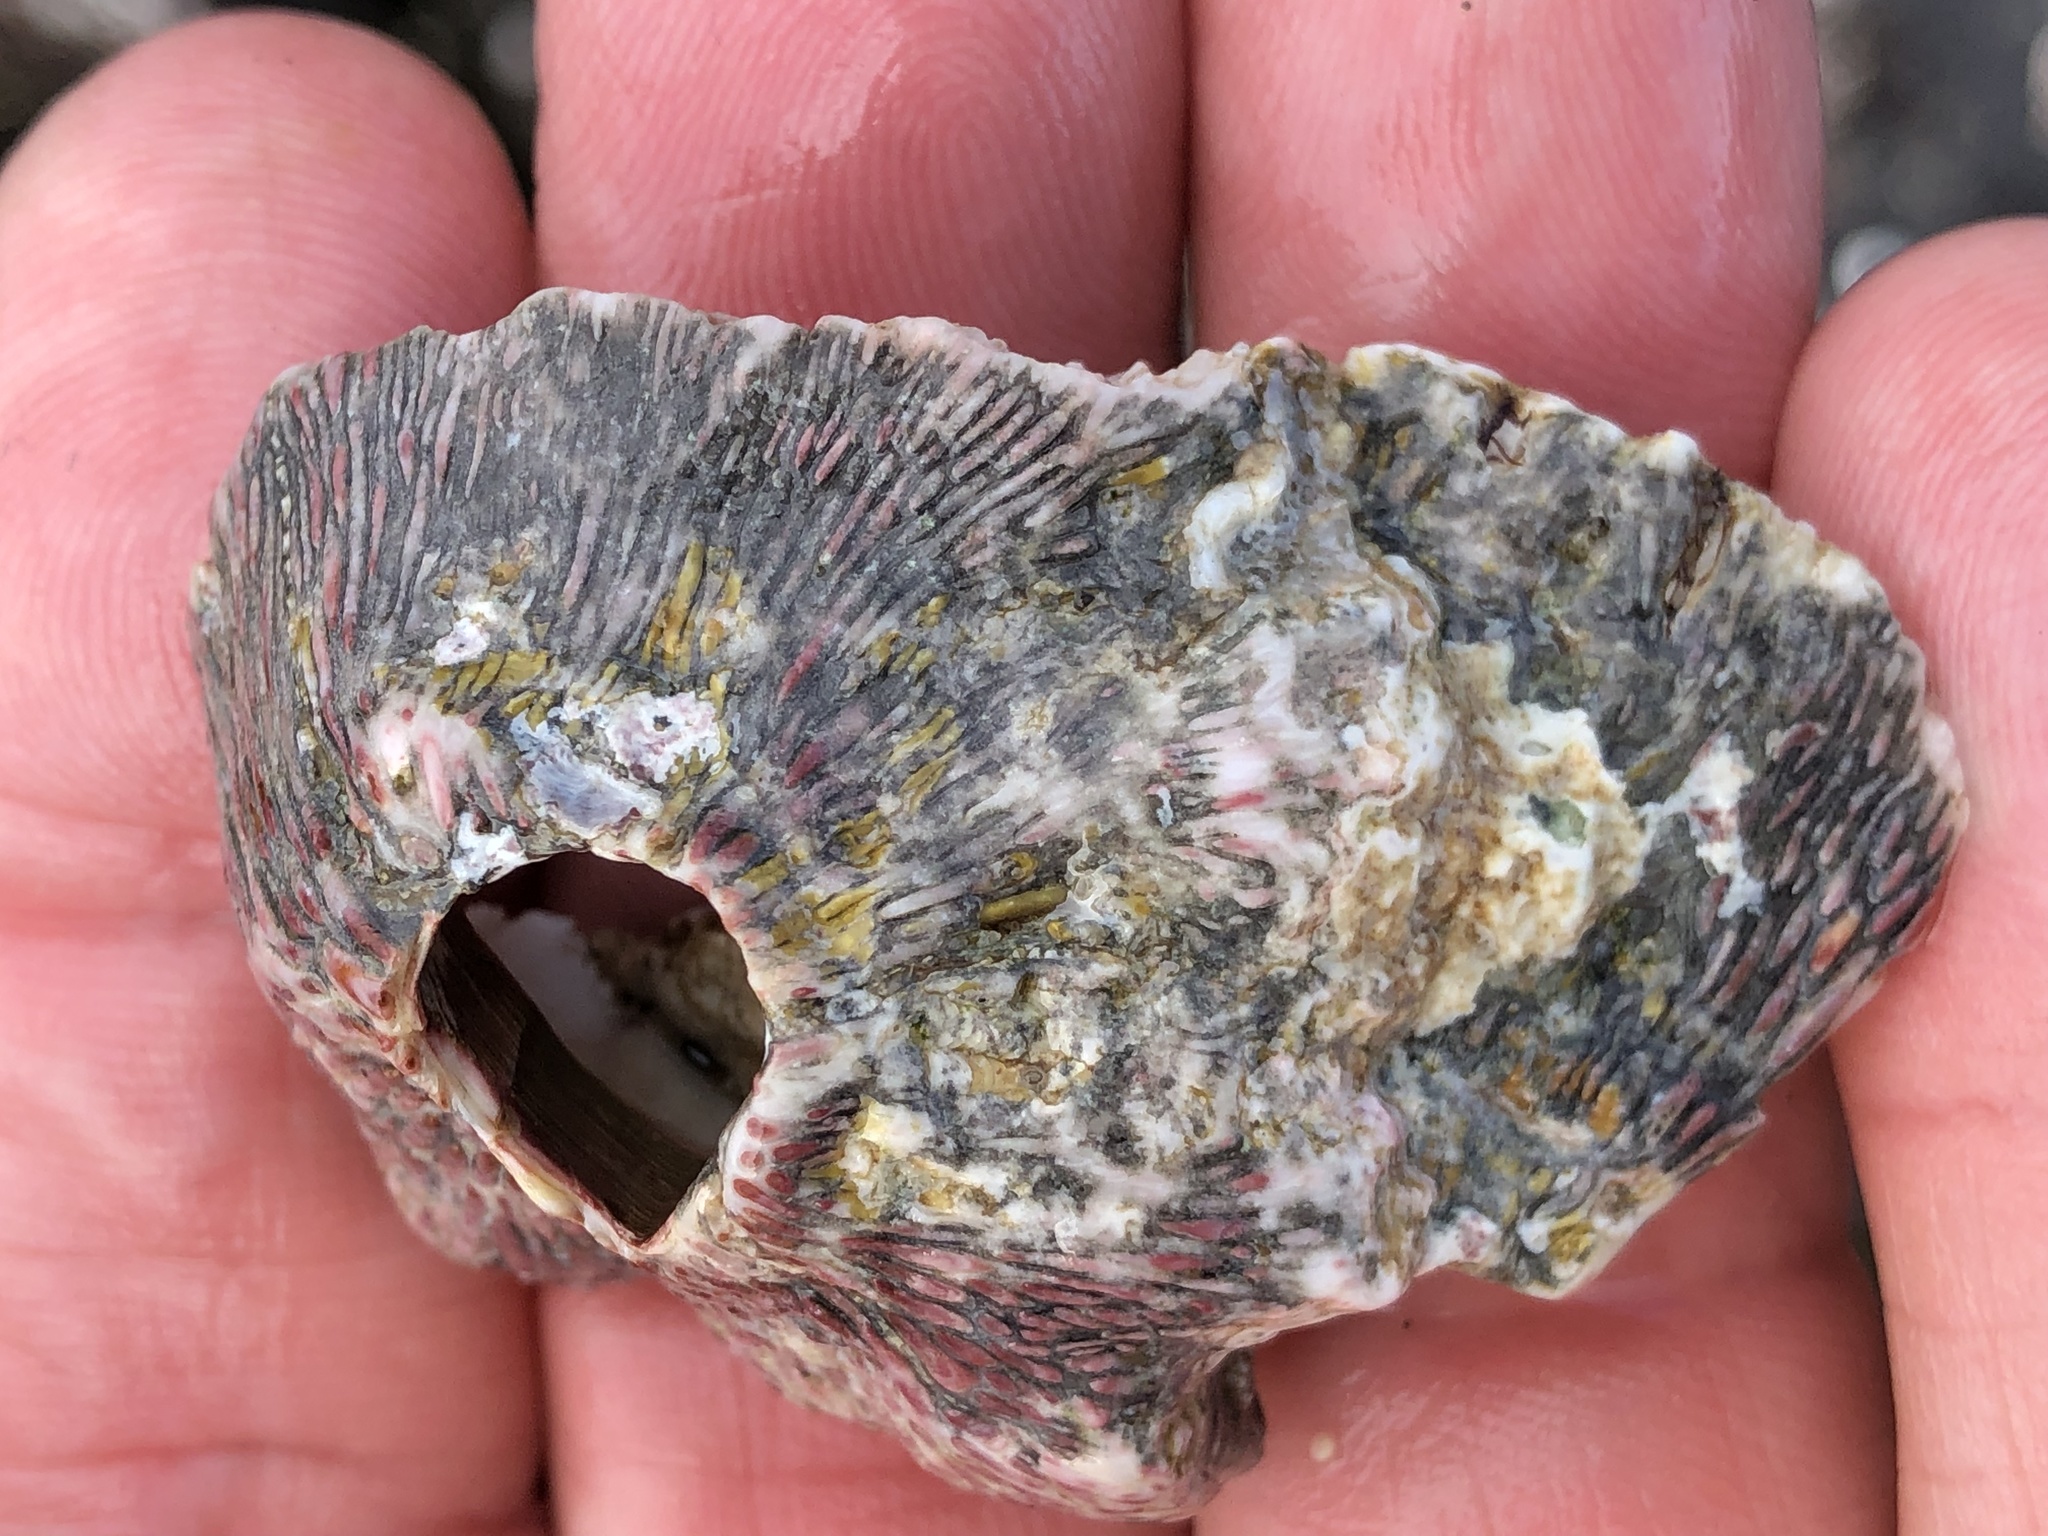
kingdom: Animalia
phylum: Arthropoda
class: Maxillopoda
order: Sessilia
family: Tetraclitidae
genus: Tetraclita
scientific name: Tetraclita rubescens
